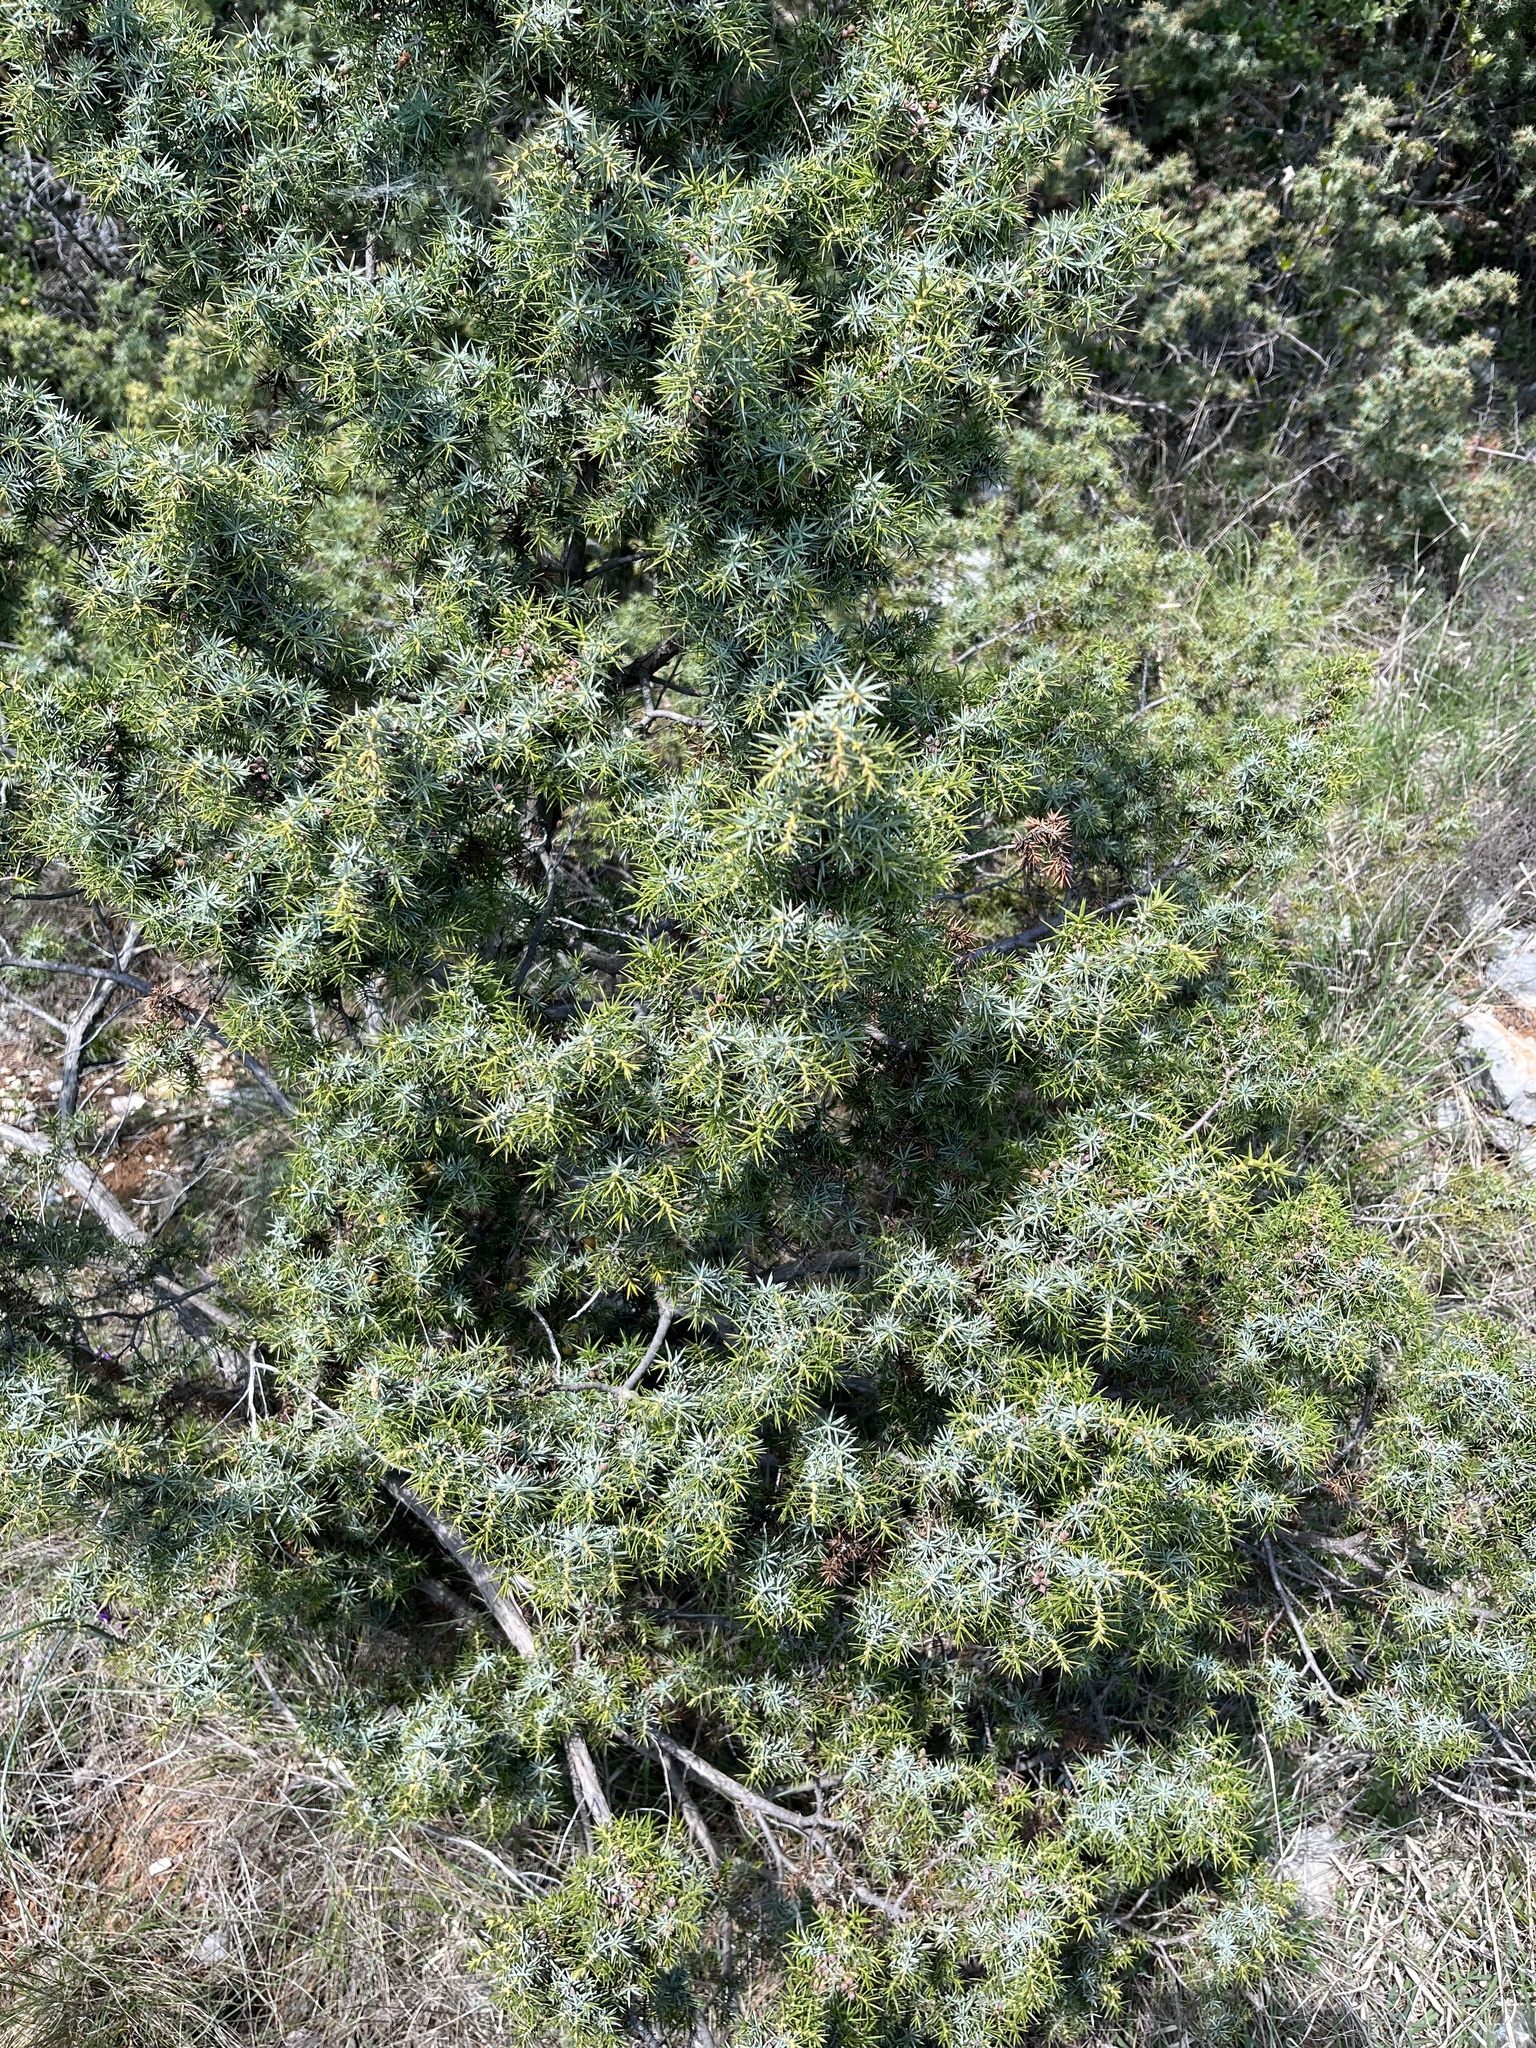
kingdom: Plantae
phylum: Tracheophyta
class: Pinopsida
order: Pinales
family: Cupressaceae
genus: Juniperus
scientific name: Juniperus oxycedrus
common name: Prickly juniper
